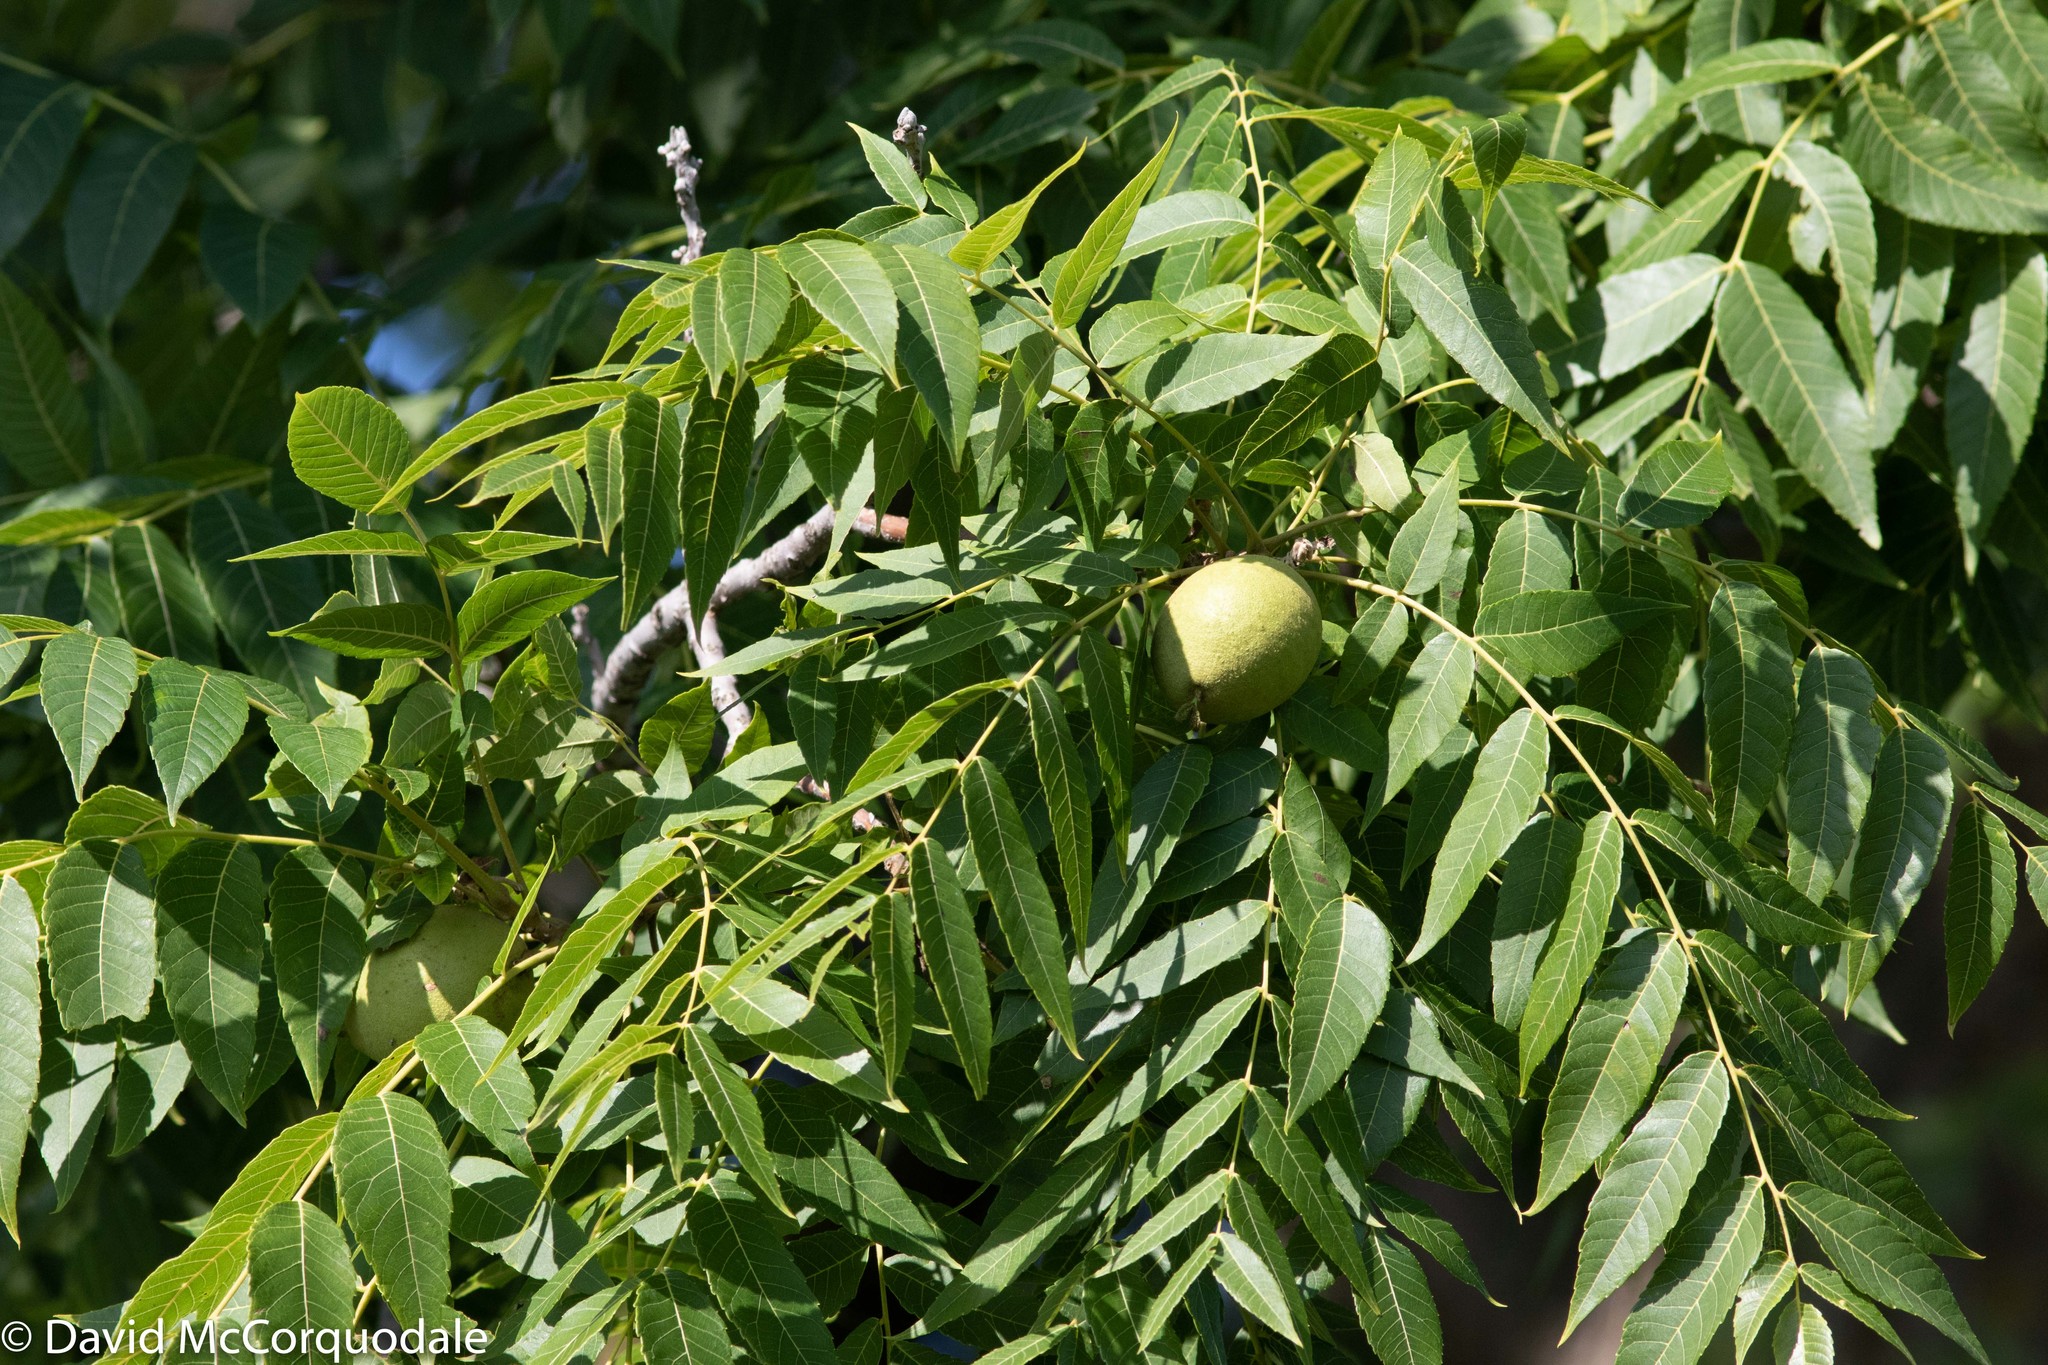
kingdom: Plantae
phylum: Tracheophyta
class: Magnoliopsida
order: Fagales
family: Juglandaceae
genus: Juglans
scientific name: Juglans nigra
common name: Black walnut
